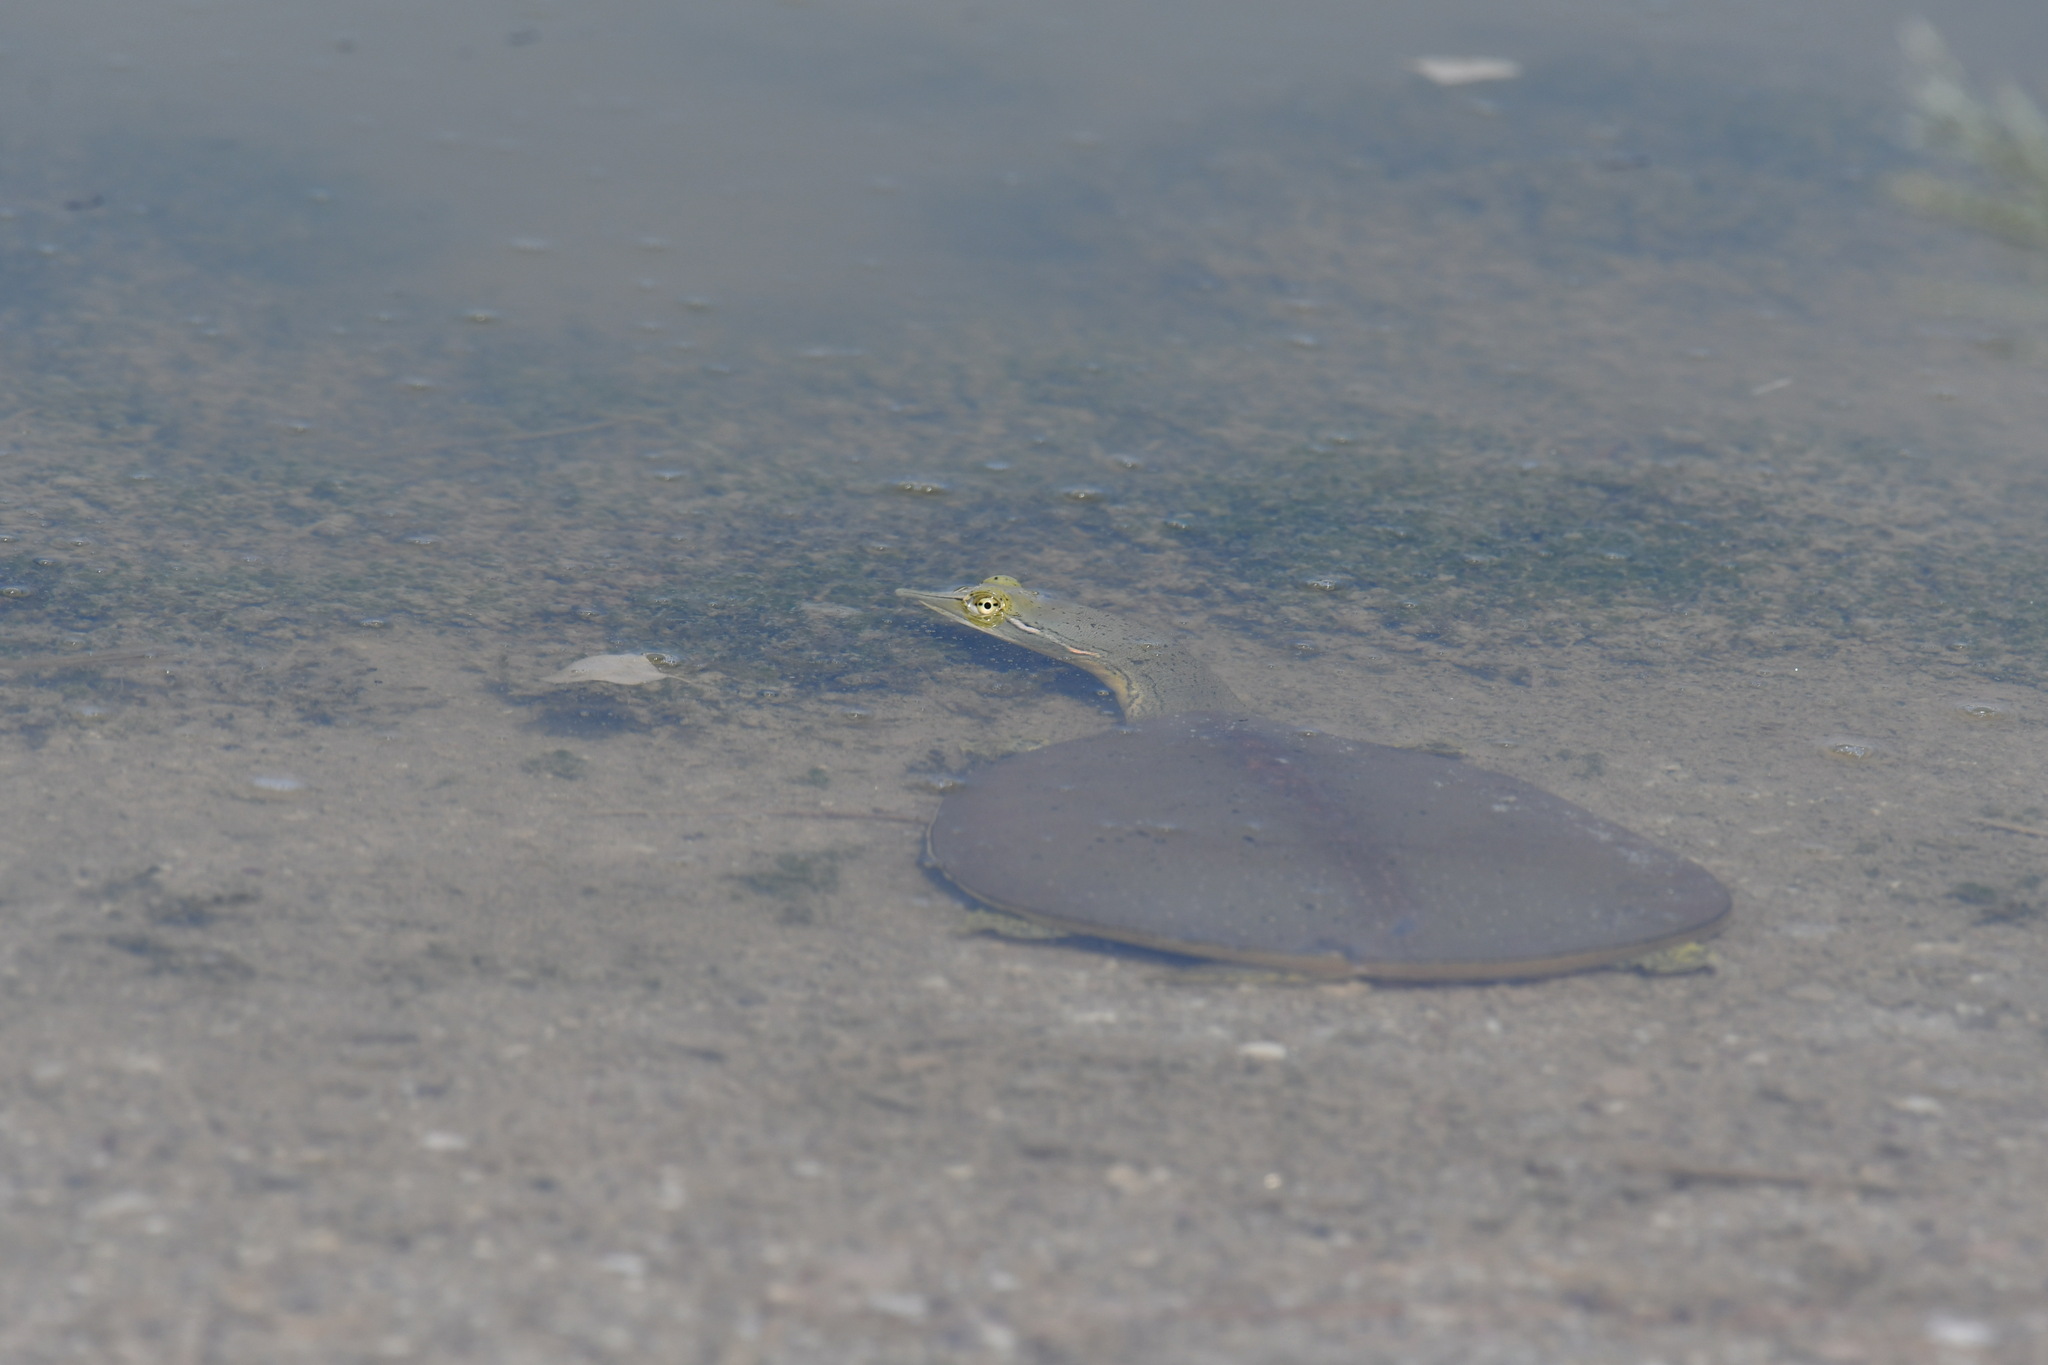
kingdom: Animalia
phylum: Chordata
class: Testudines
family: Trionychidae
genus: Apalone
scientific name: Apalone spinifera
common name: Spiny softshell turtle
